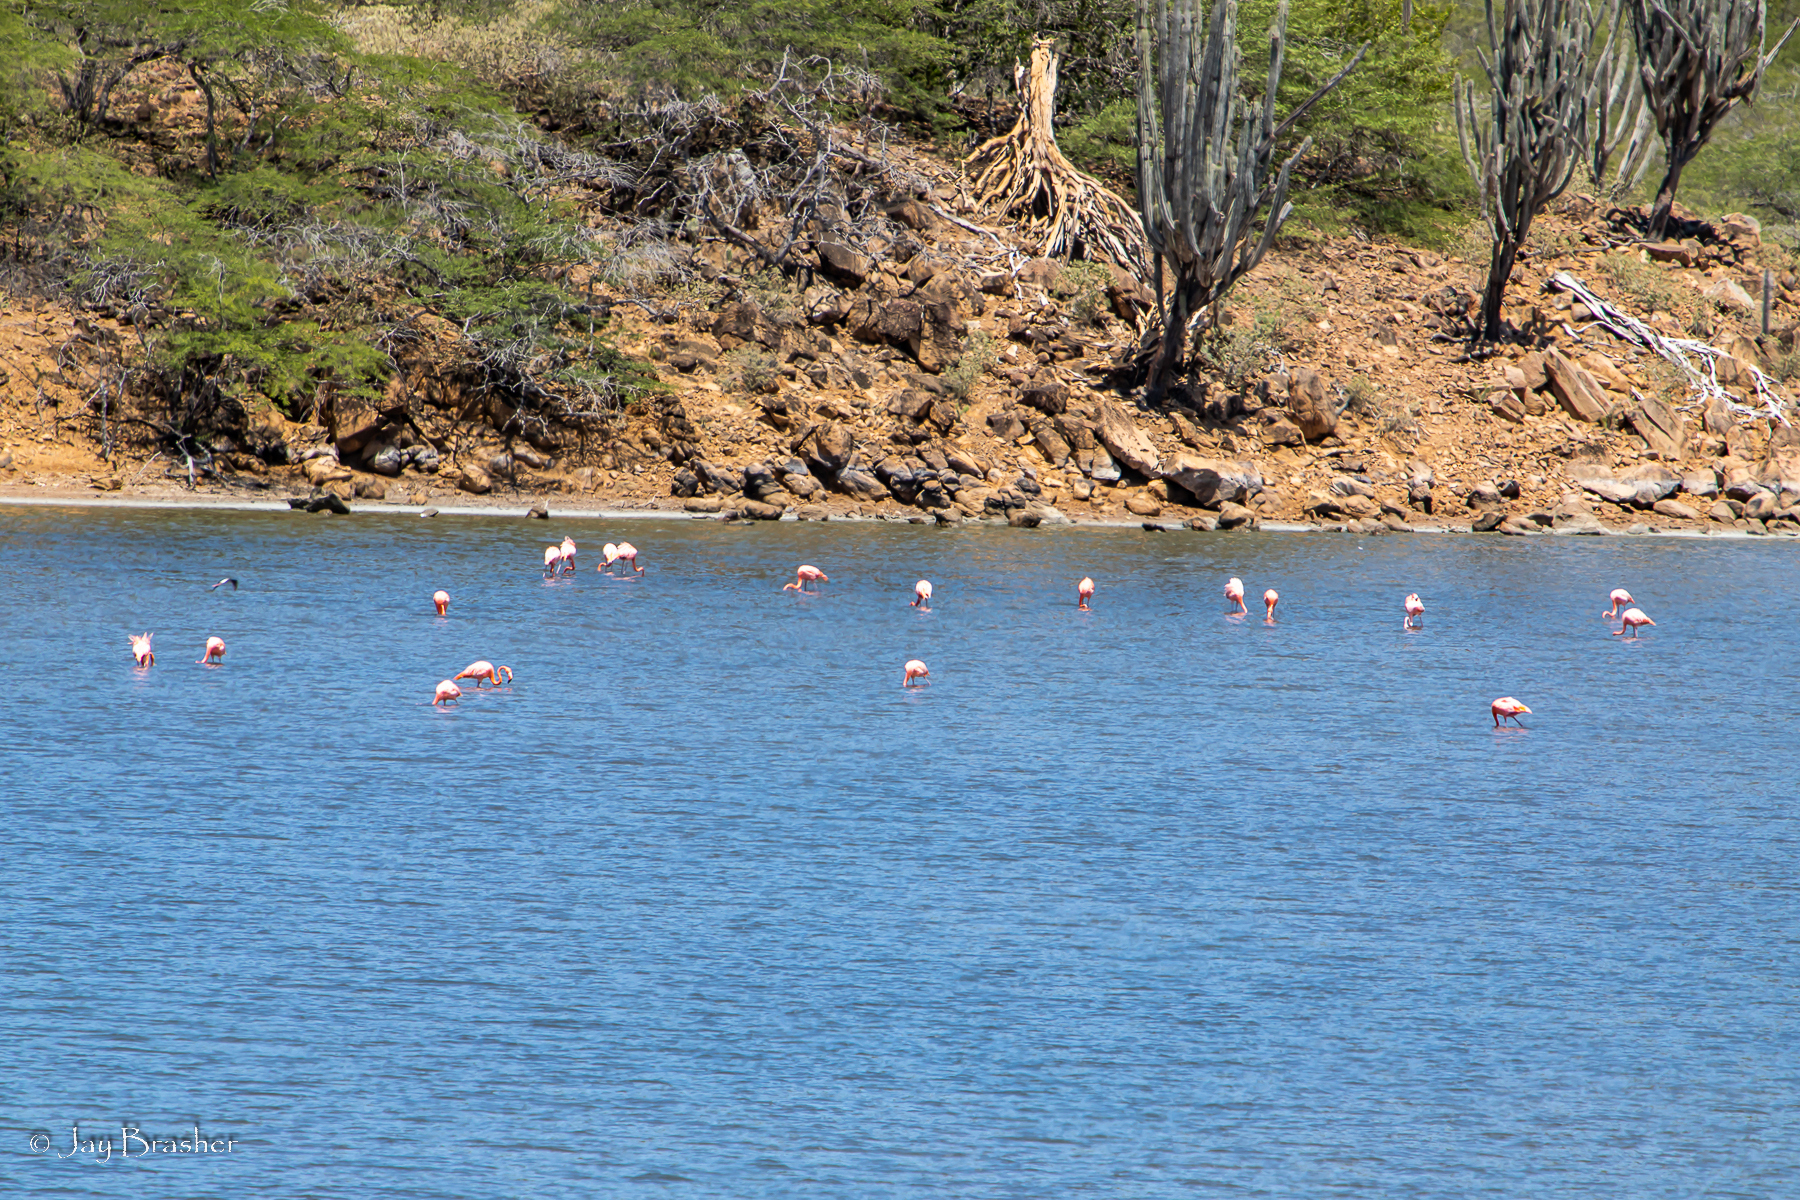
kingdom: Animalia
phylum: Chordata
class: Aves
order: Phoenicopteriformes
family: Phoenicopteridae
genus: Phoenicopterus
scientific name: Phoenicopterus ruber
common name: American flamingo
